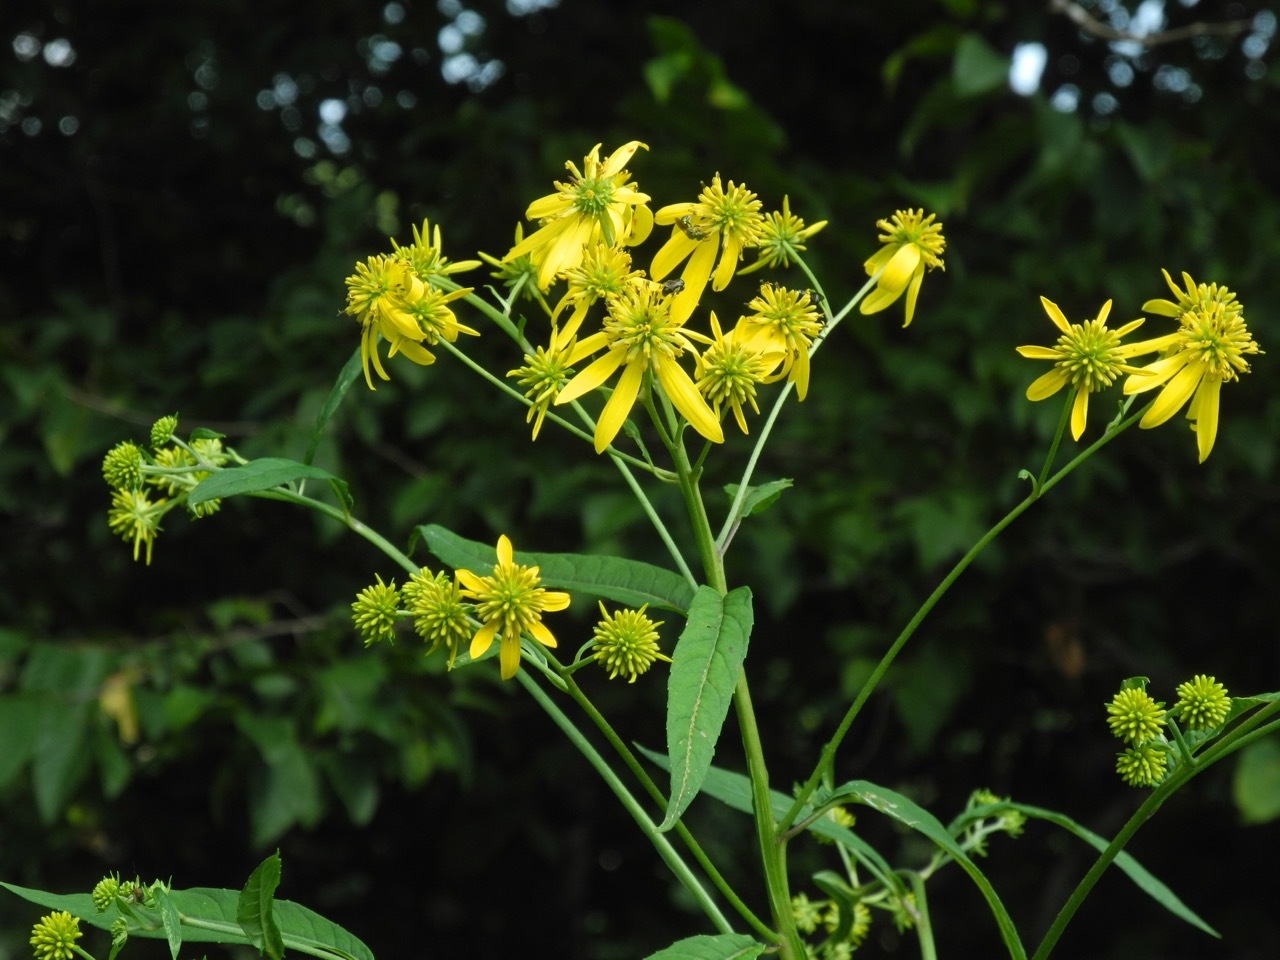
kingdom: Plantae
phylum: Tracheophyta
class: Magnoliopsida
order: Asterales
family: Asteraceae
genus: Verbesina
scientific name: Verbesina alternifolia
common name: Wingstem
